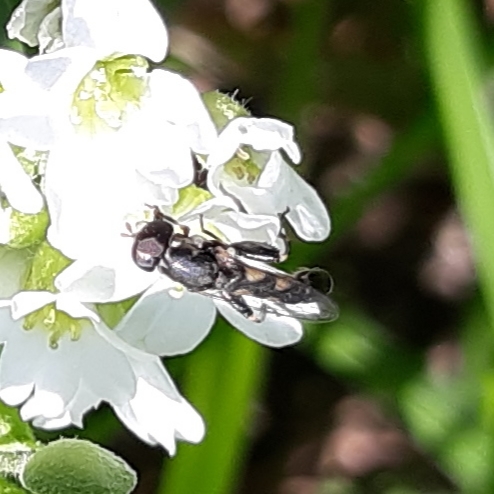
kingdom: Animalia
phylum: Arthropoda
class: Insecta
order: Diptera
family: Syrphidae
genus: Syritta
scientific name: Syritta pipiens
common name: Hover fly
